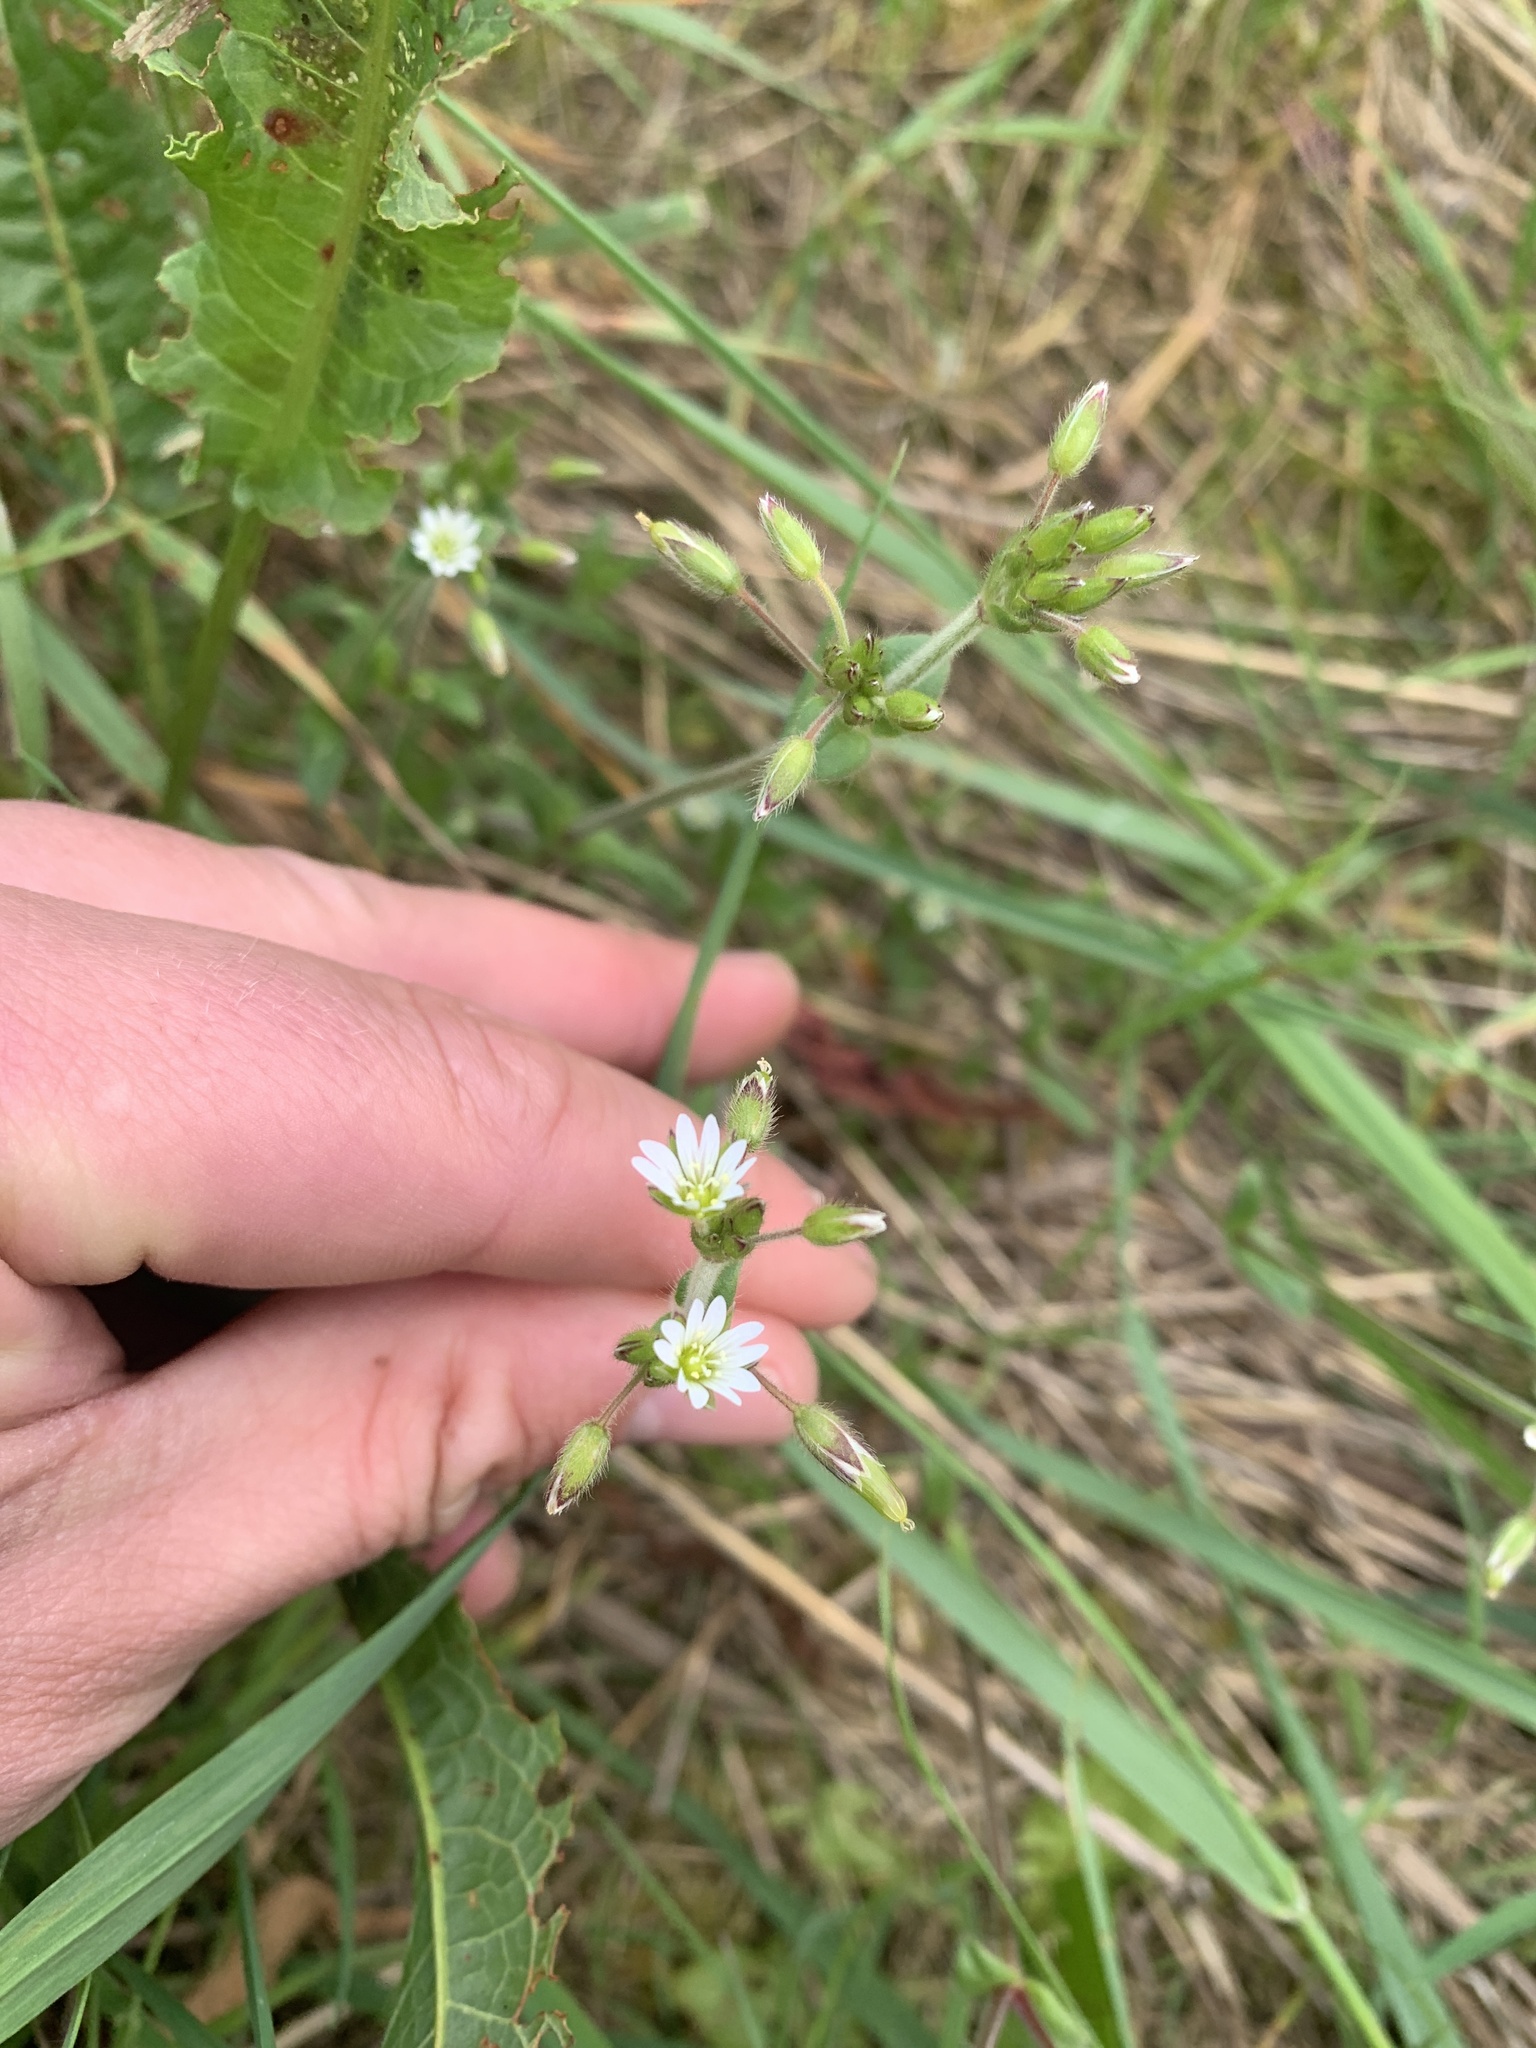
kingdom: Plantae
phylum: Tracheophyta
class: Magnoliopsida
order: Caryophyllales
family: Caryophyllaceae
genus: Cerastium
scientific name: Cerastium holosteoides
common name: Big chickweed
